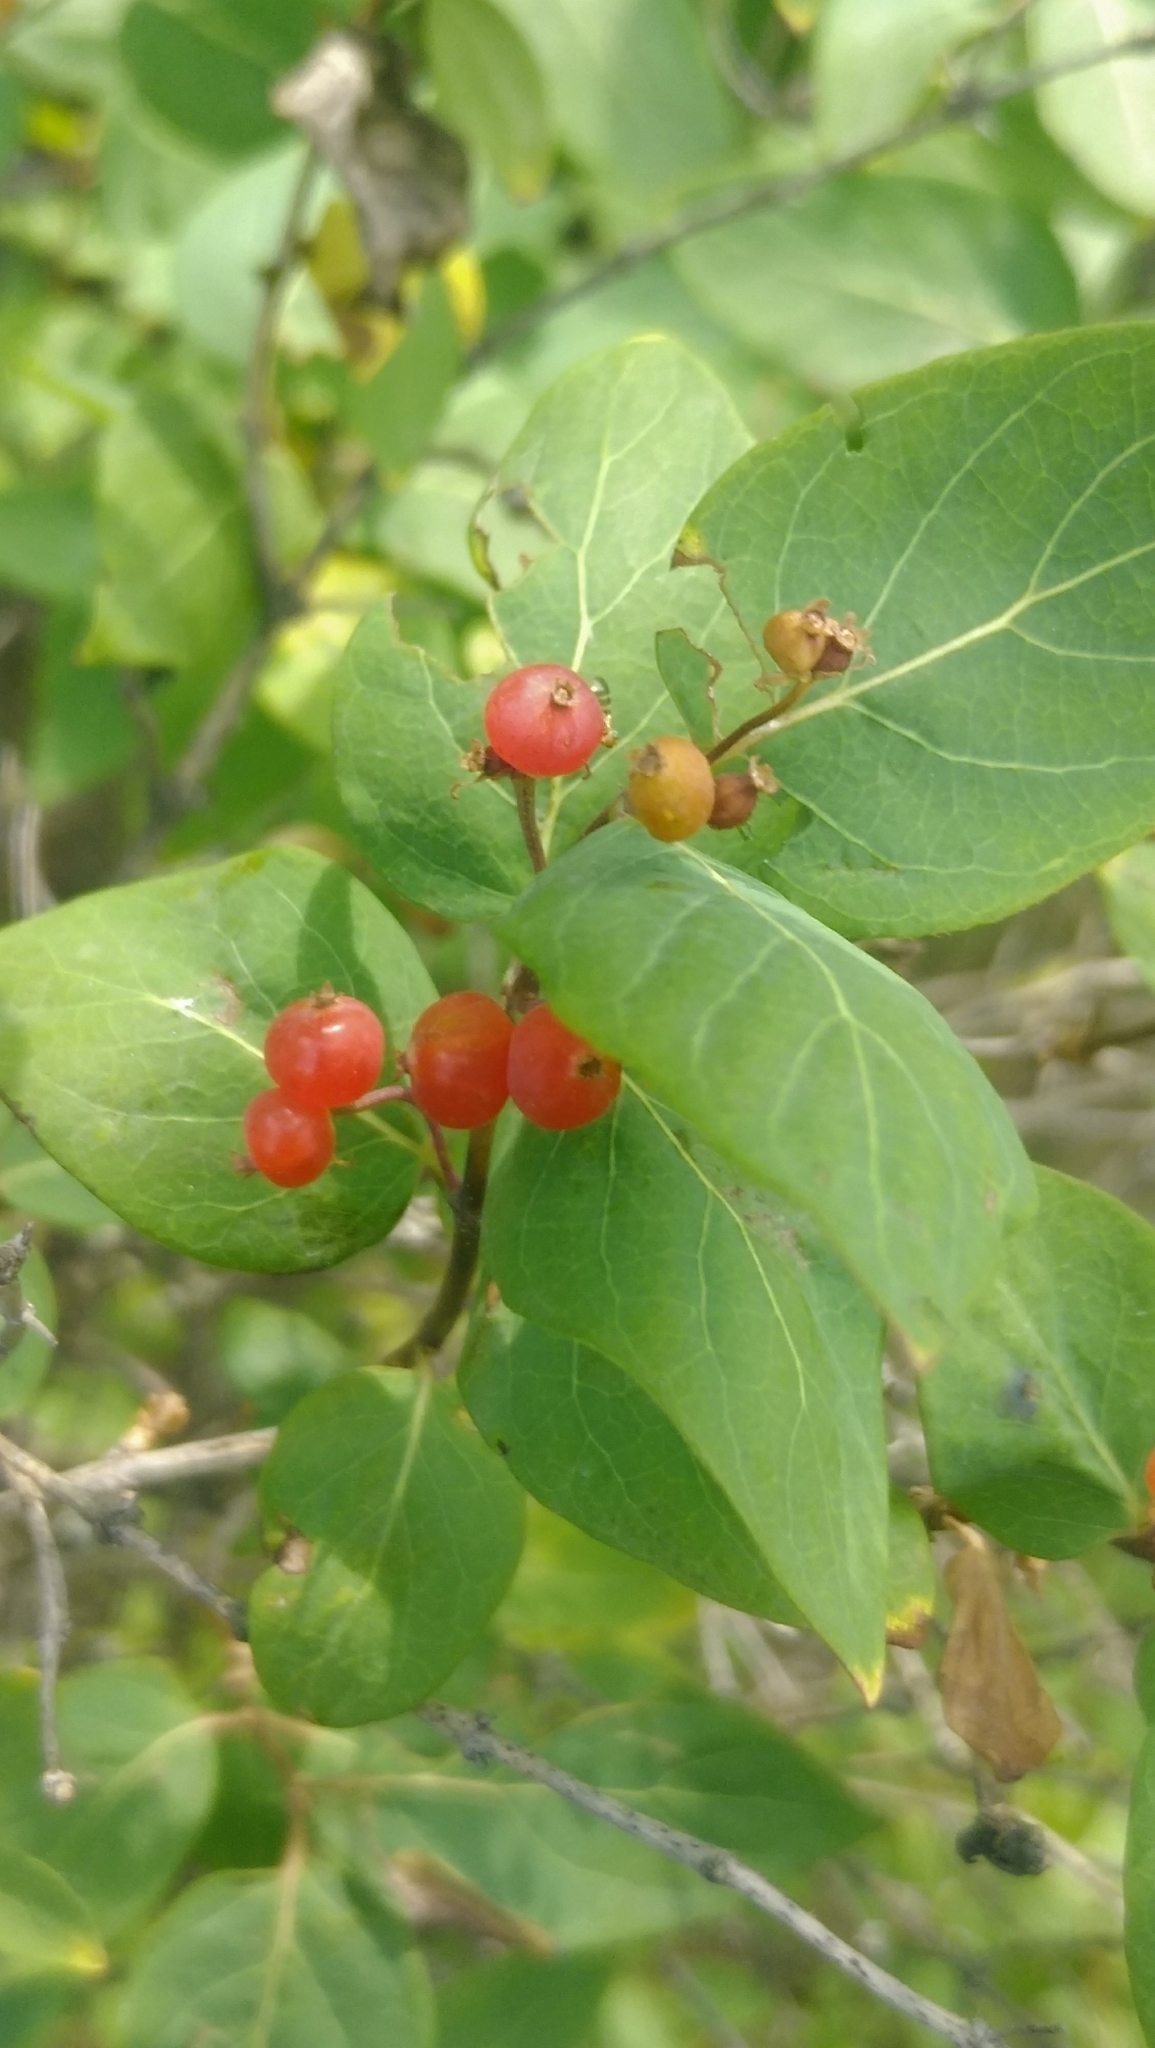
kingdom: Plantae
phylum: Tracheophyta
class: Magnoliopsida
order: Dipsacales
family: Caprifoliaceae
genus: Lonicera
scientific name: Lonicera tatarica
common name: Tatarian honeysuckle
